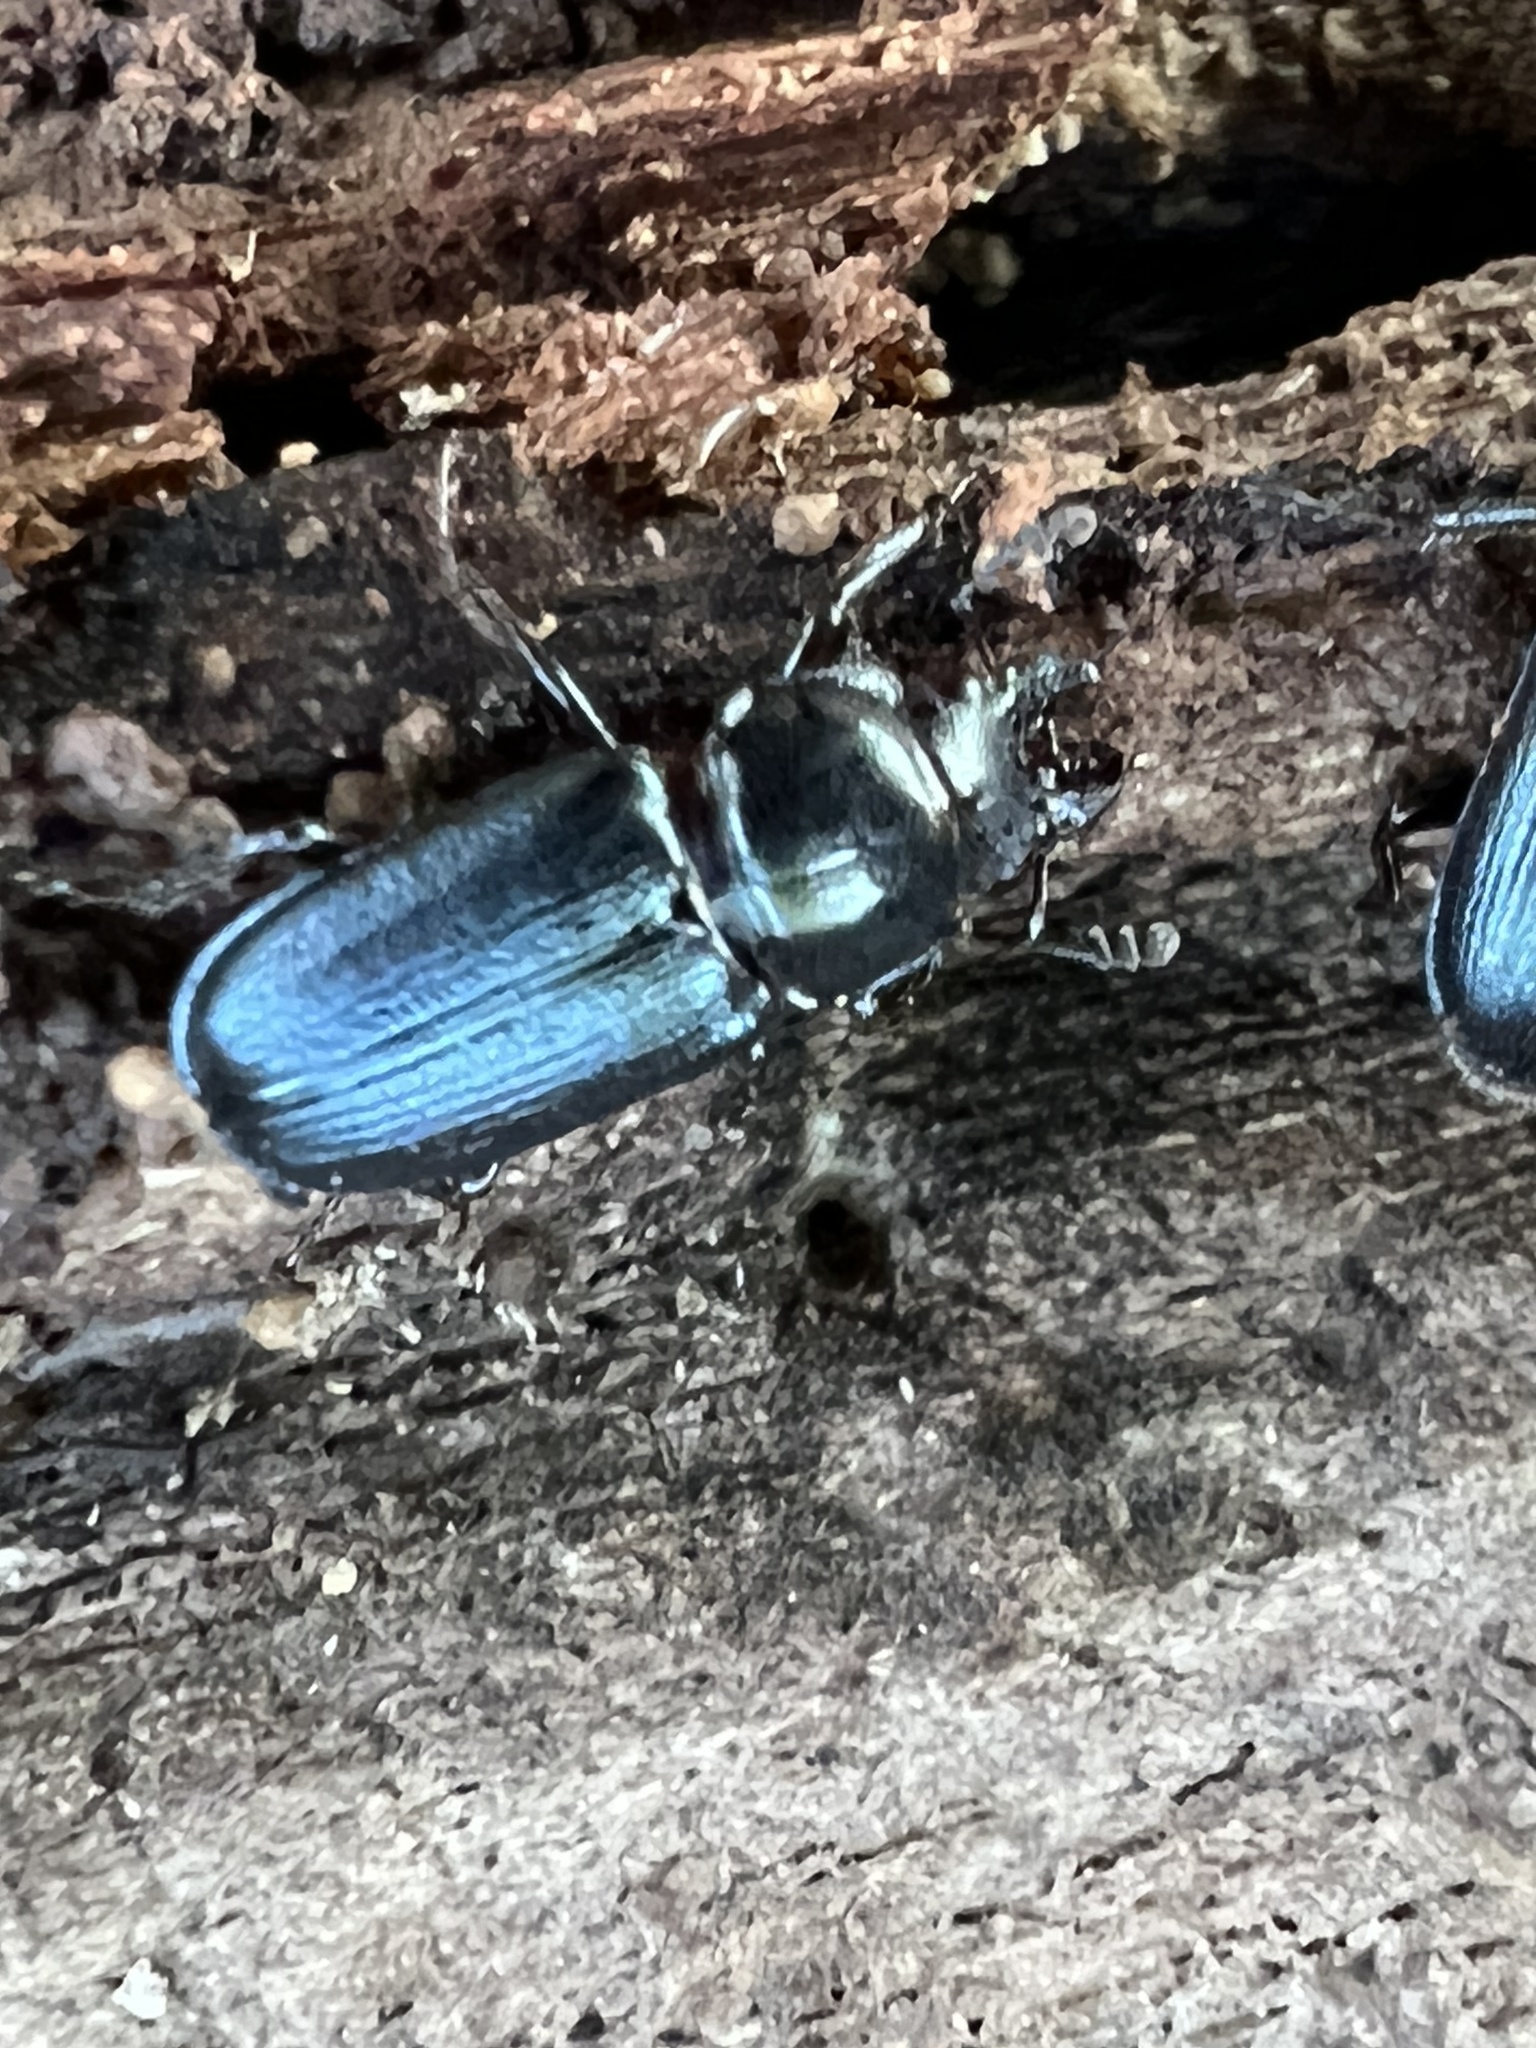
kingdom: Animalia
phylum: Arthropoda
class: Insecta
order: Coleoptera
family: Lucanidae
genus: Platycerus
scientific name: Platycerus quercus
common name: Oak stag beetle
